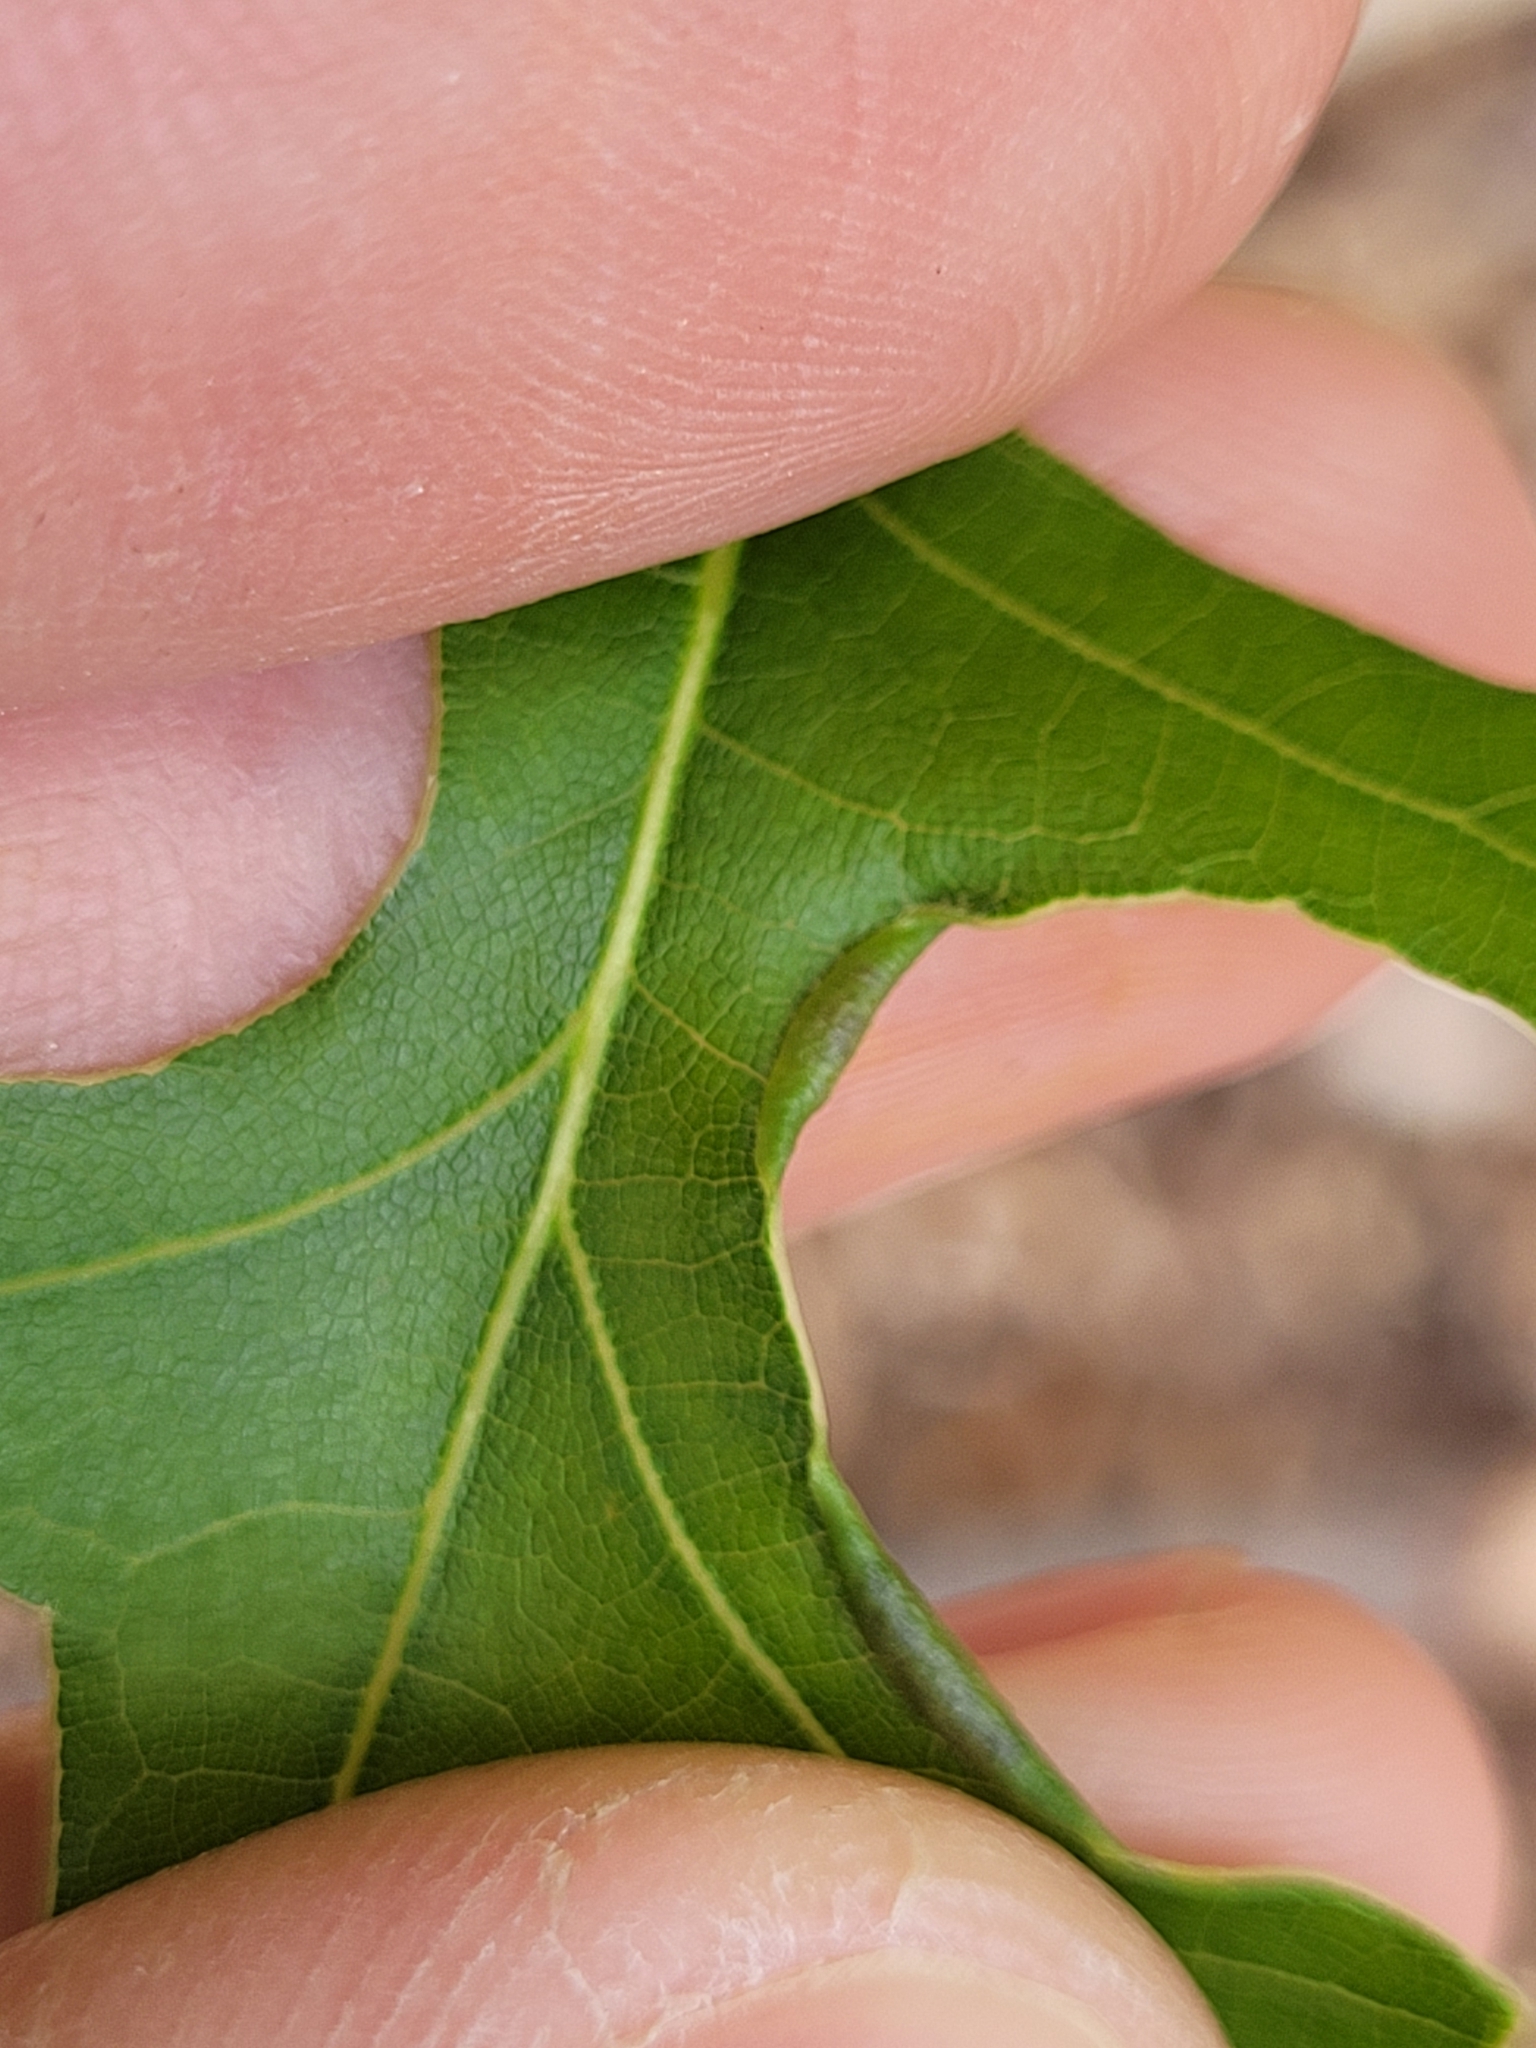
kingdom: Animalia
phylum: Arthropoda
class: Insecta
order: Diptera
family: Cecidomyiidae
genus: Macrodiplosis
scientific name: Macrodiplosis erubescens
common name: Marginal leaf fold gall midge
